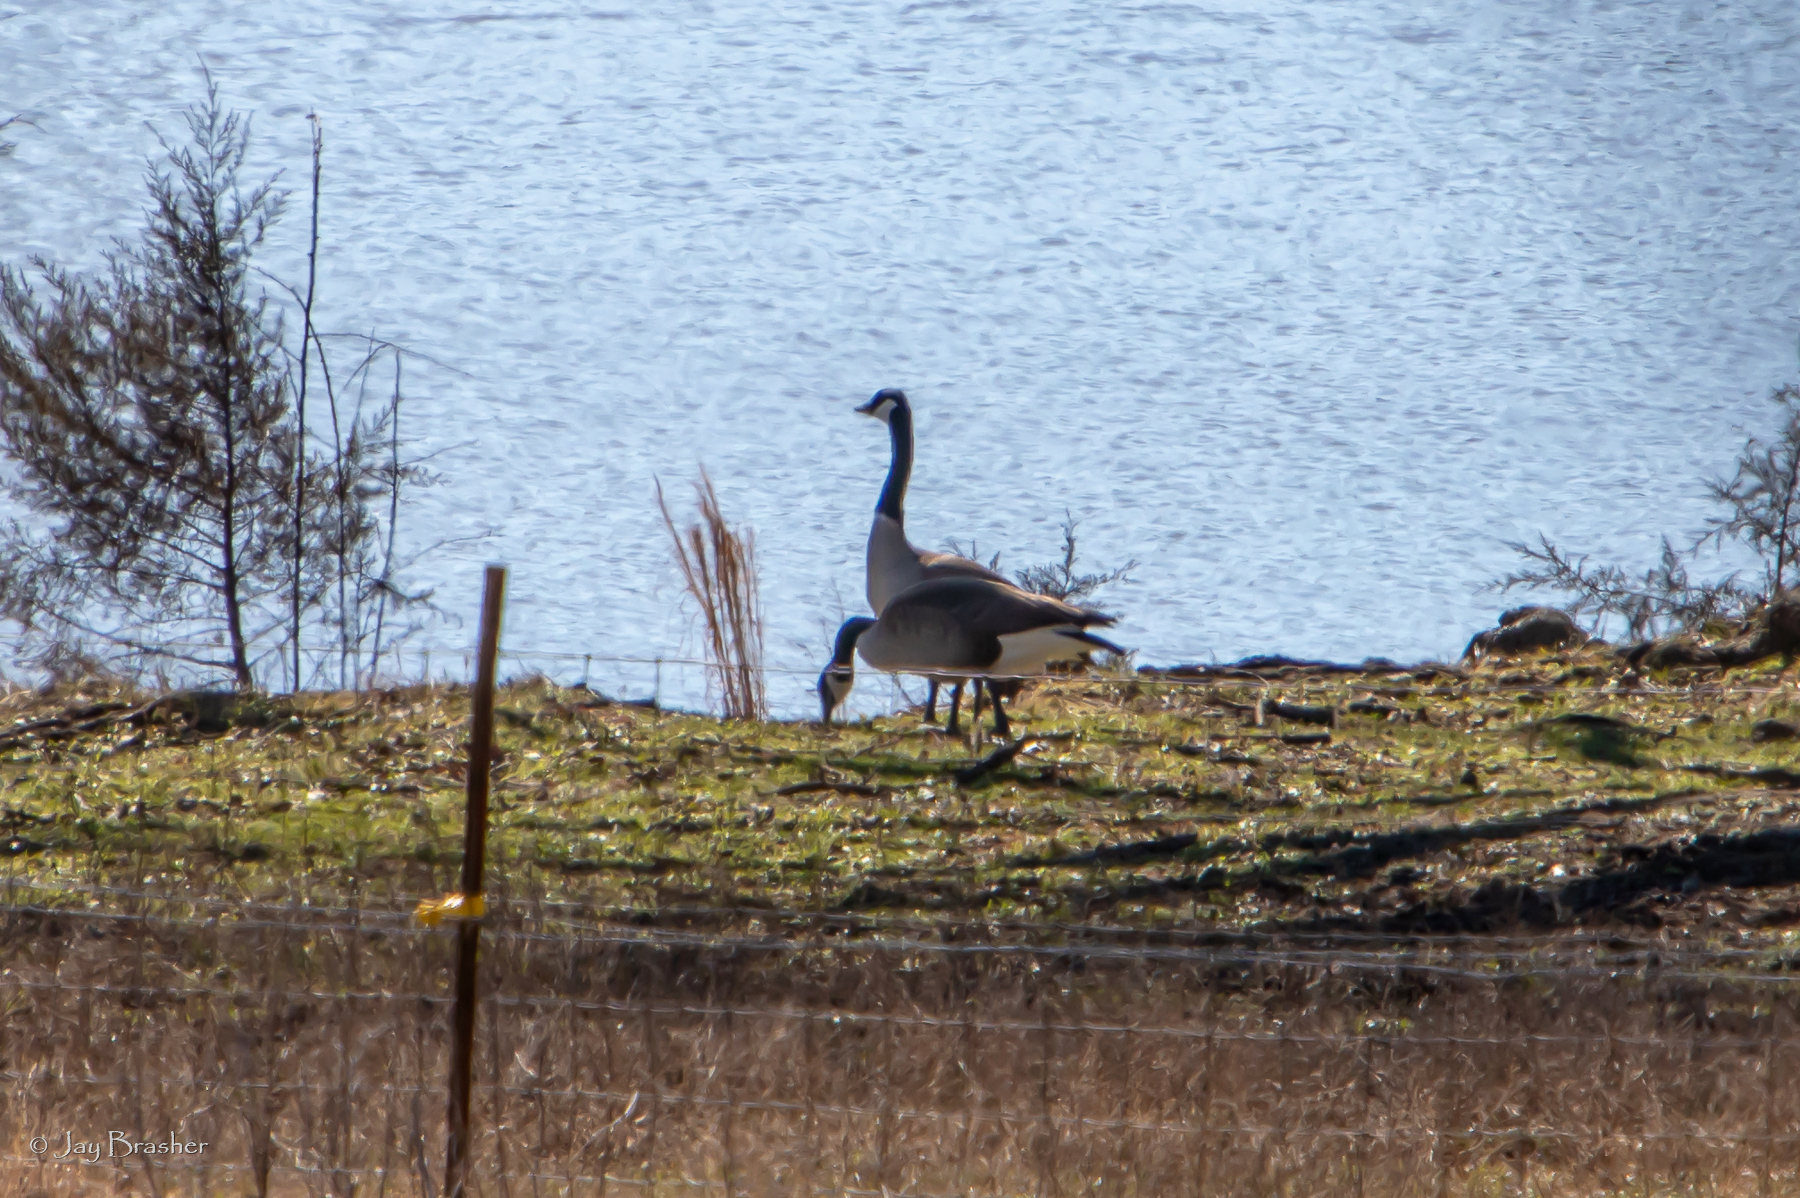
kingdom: Animalia
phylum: Chordata
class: Aves
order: Anseriformes
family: Anatidae
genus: Branta
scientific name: Branta canadensis
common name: Canada goose
